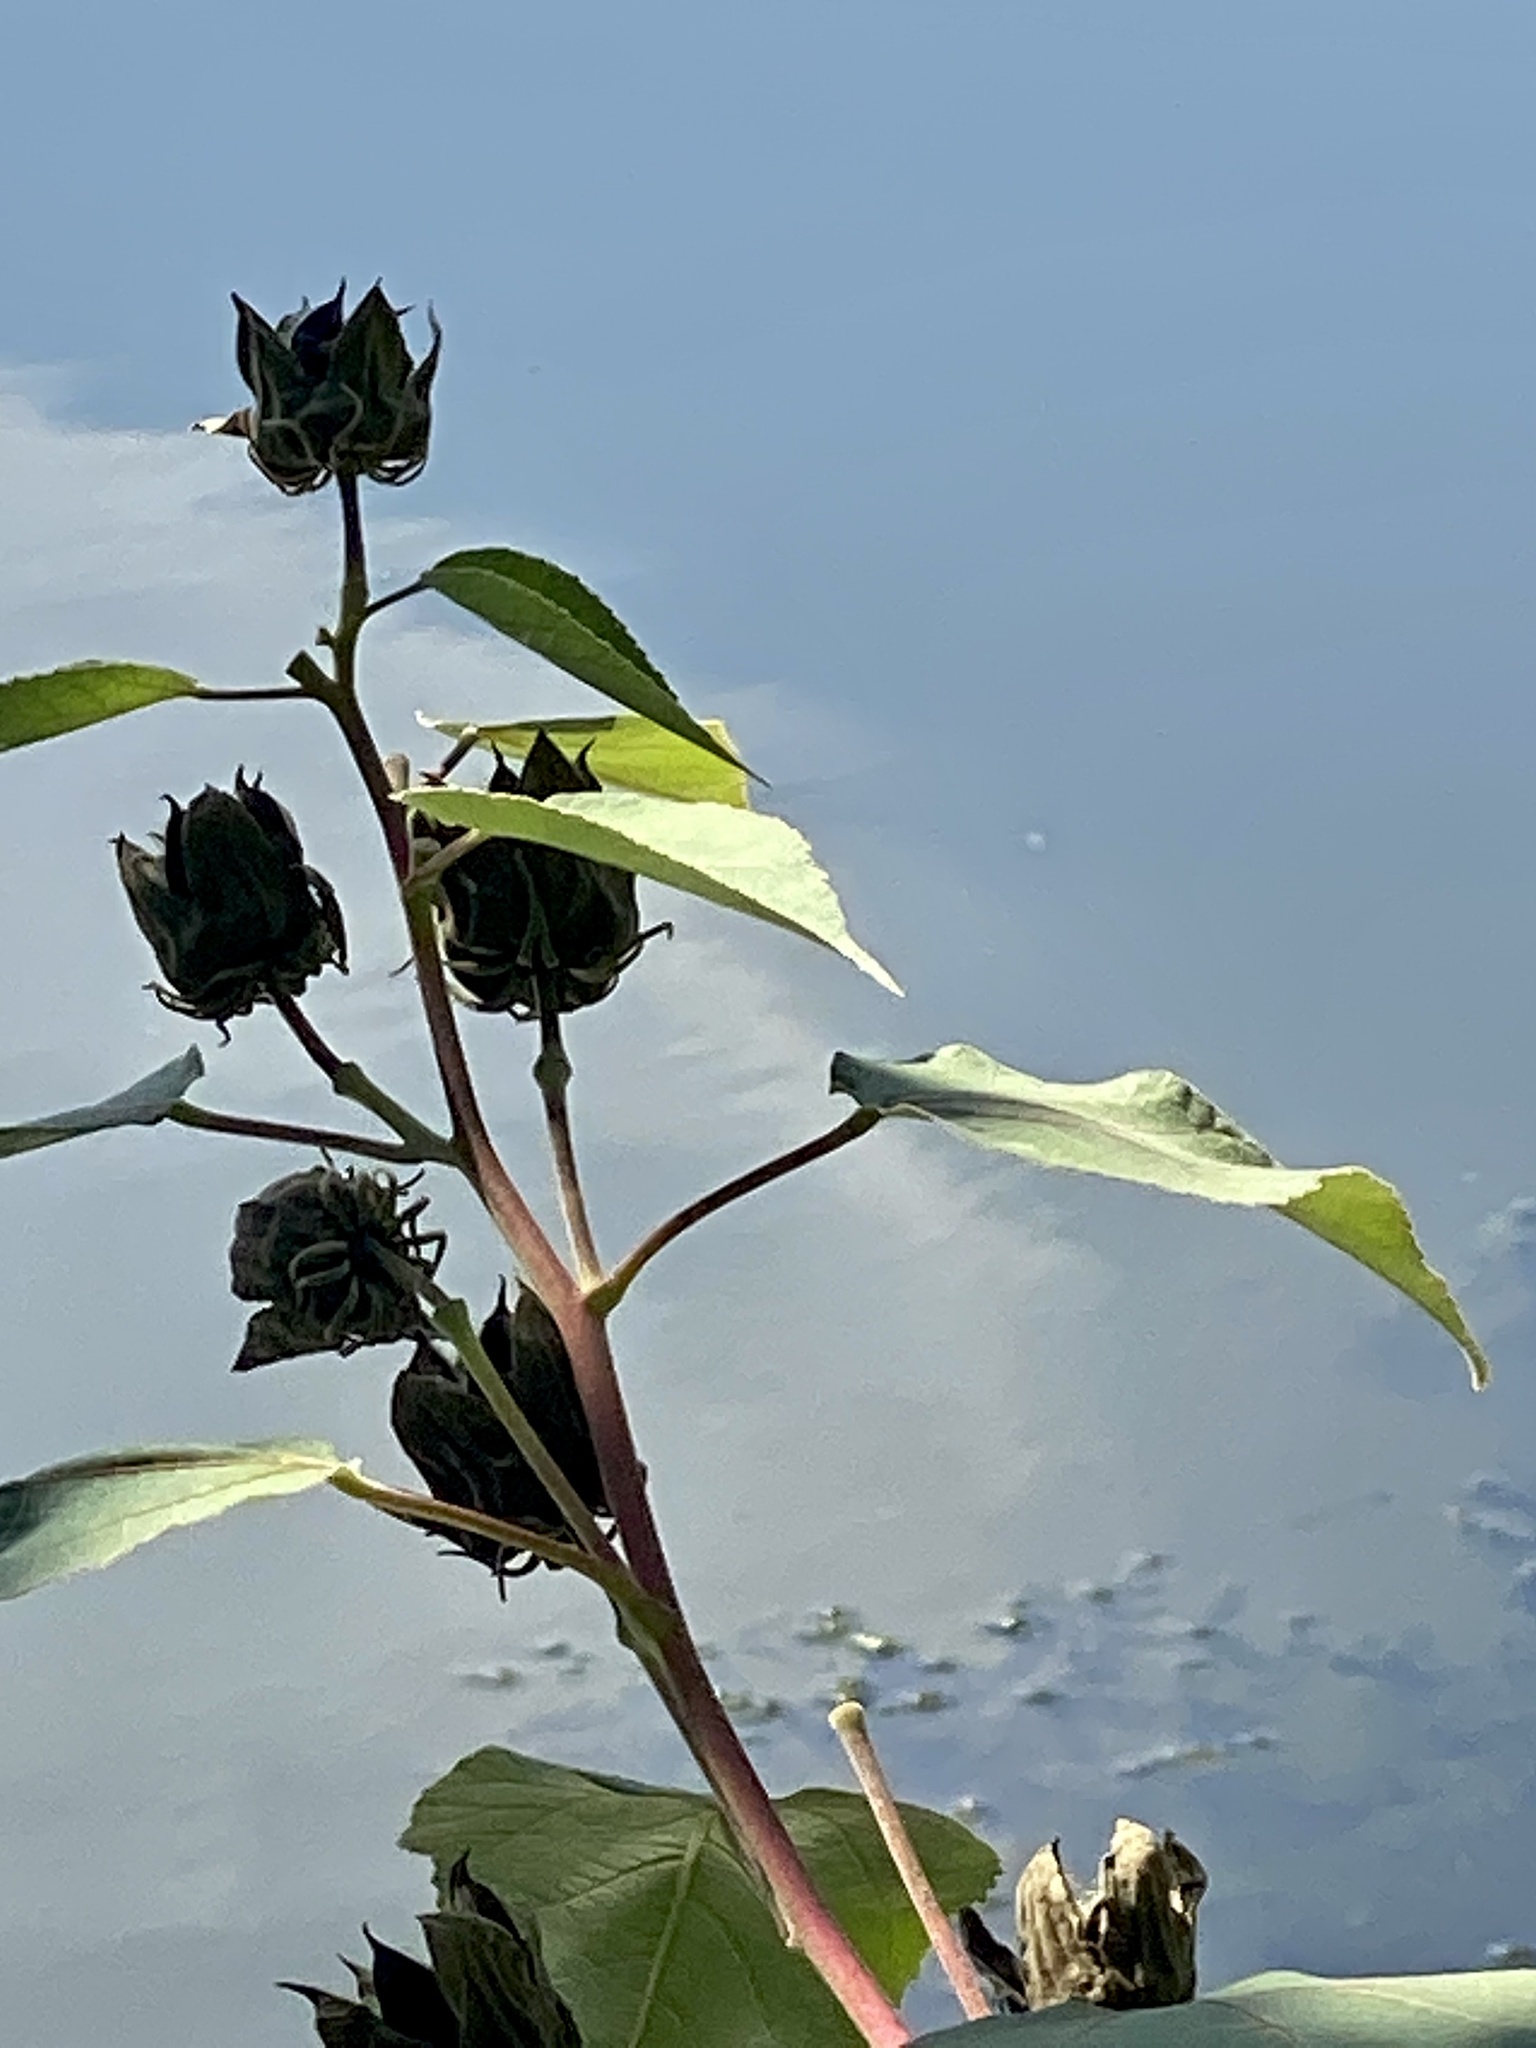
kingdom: Plantae
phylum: Tracheophyta
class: Magnoliopsida
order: Malvales
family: Malvaceae
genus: Hibiscus
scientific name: Hibiscus moscheutos
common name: Common rose-mallow
